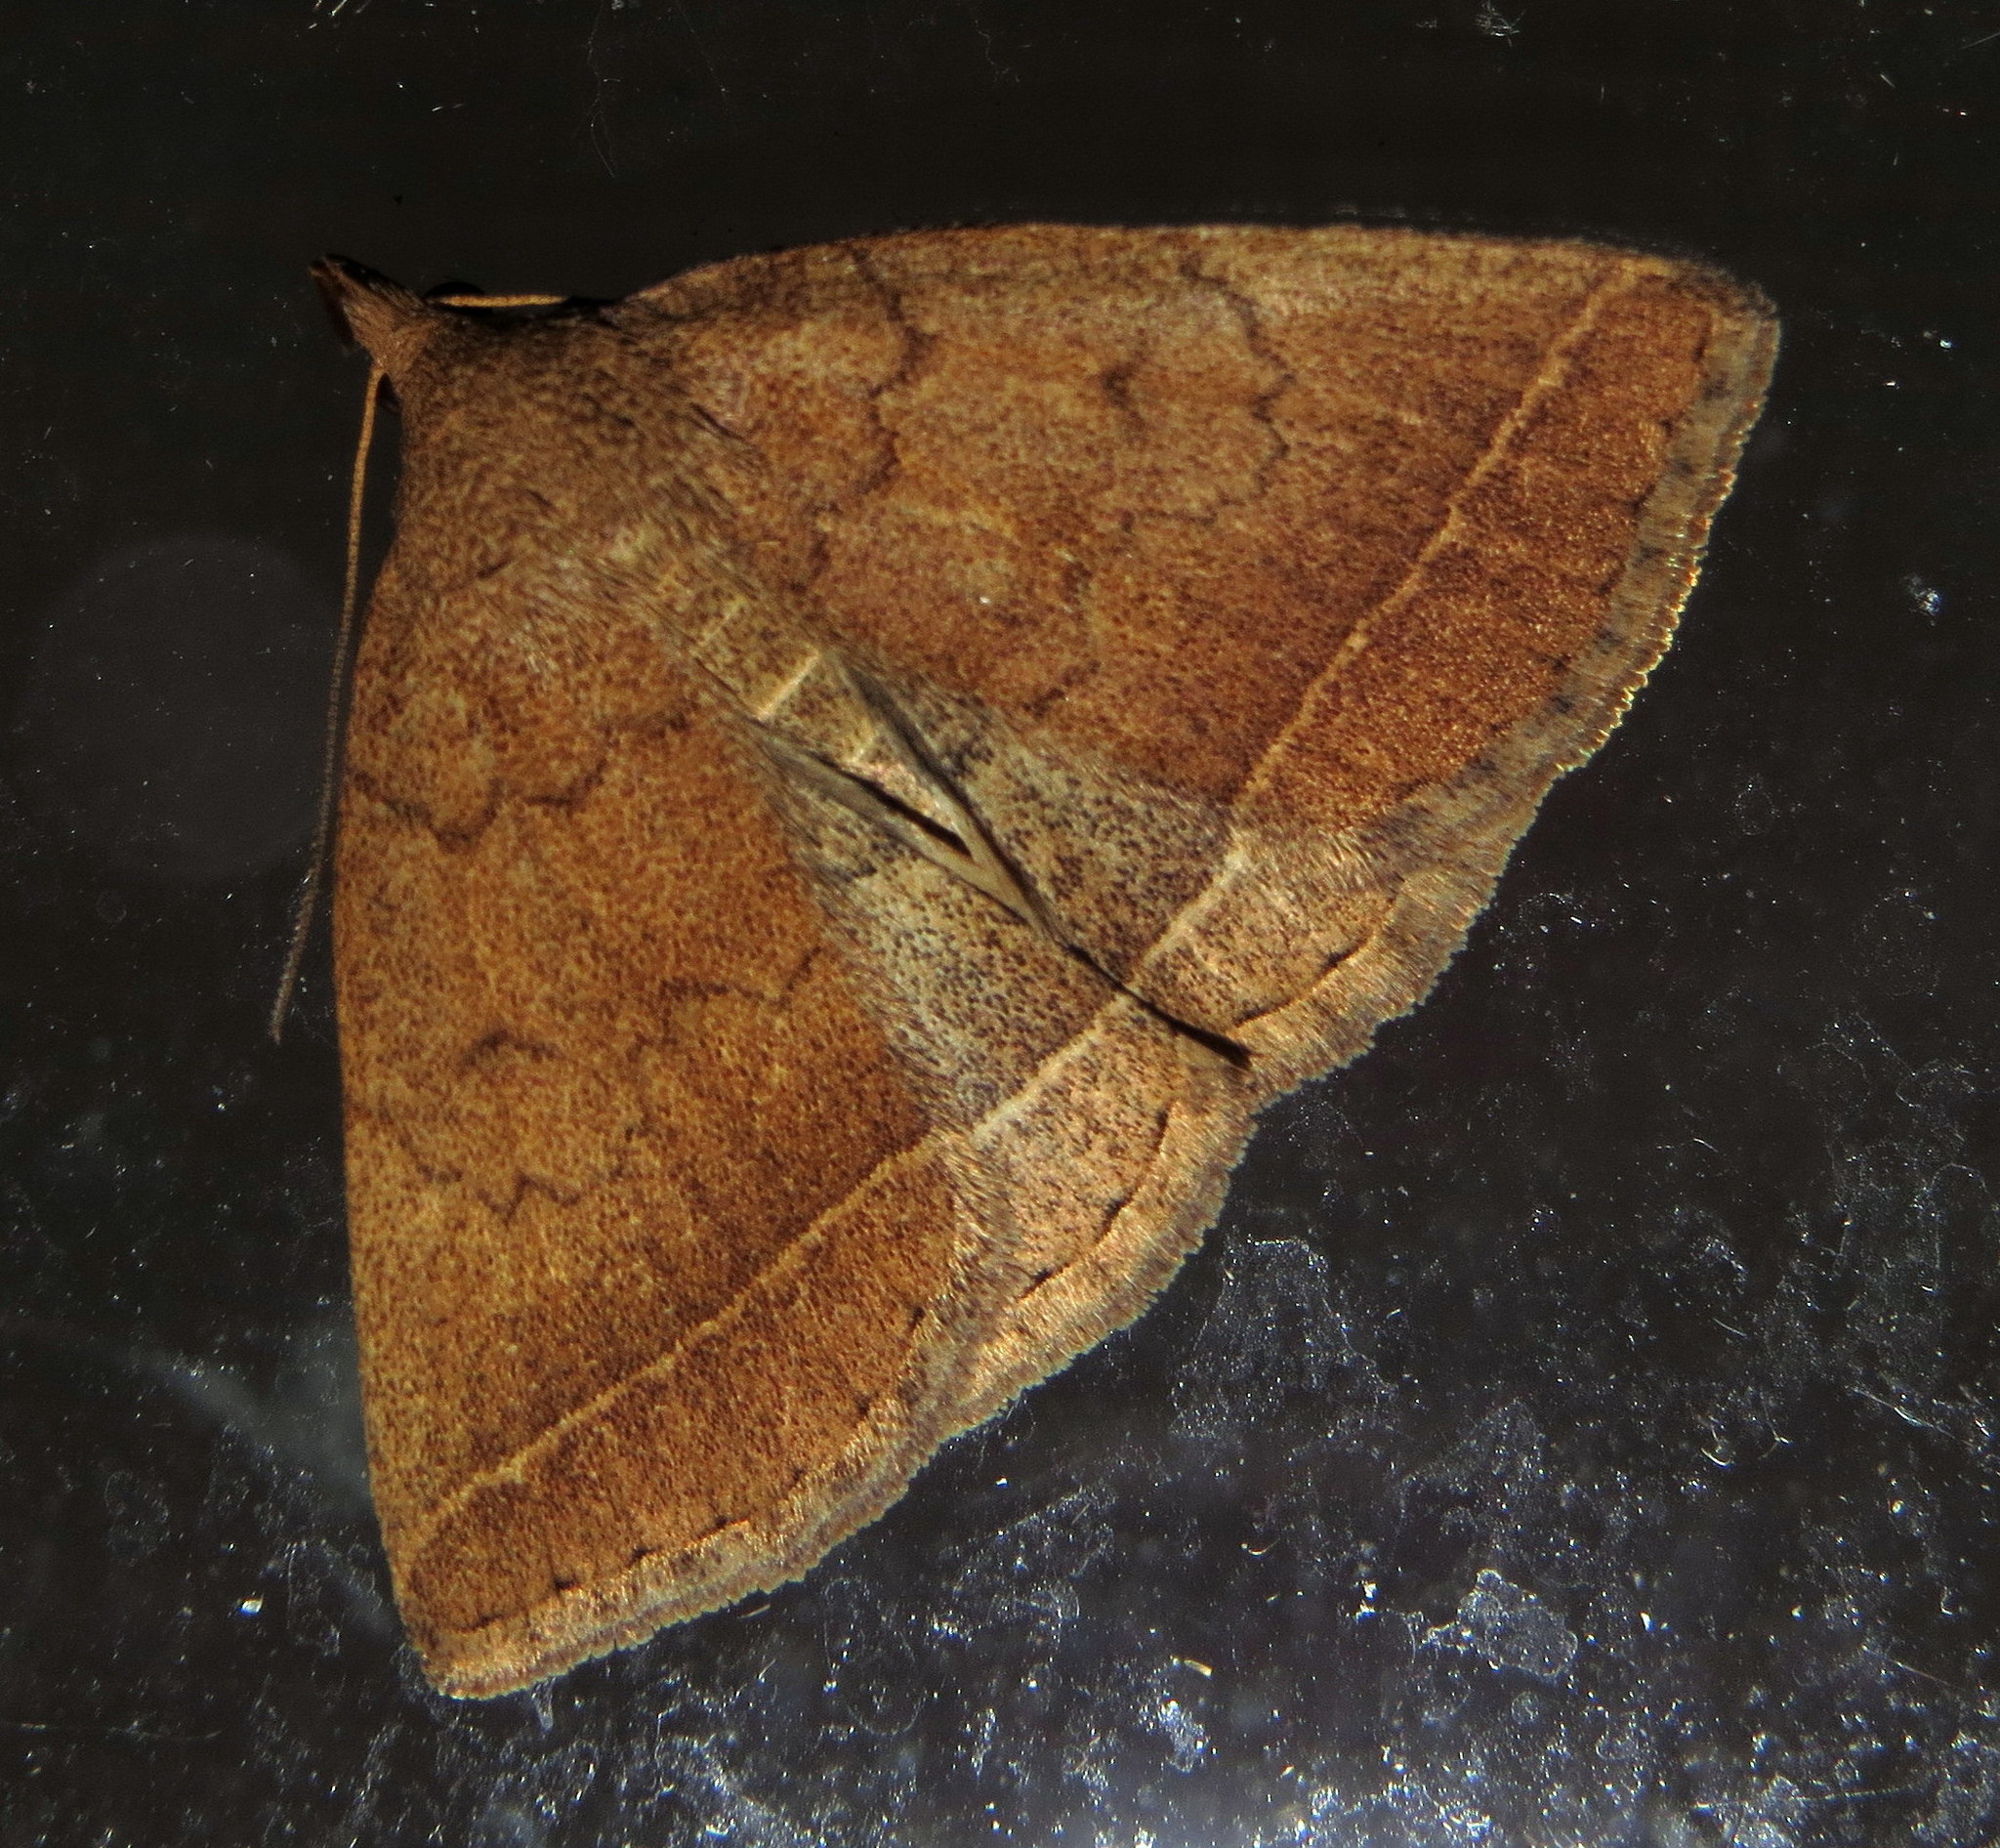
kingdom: Animalia
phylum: Arthropoda
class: Insecta
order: Lepidoptera
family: Erebidae
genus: Zanclognatha
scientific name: Zanclognatha jacchusalis
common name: Yellowish zanclognatha
